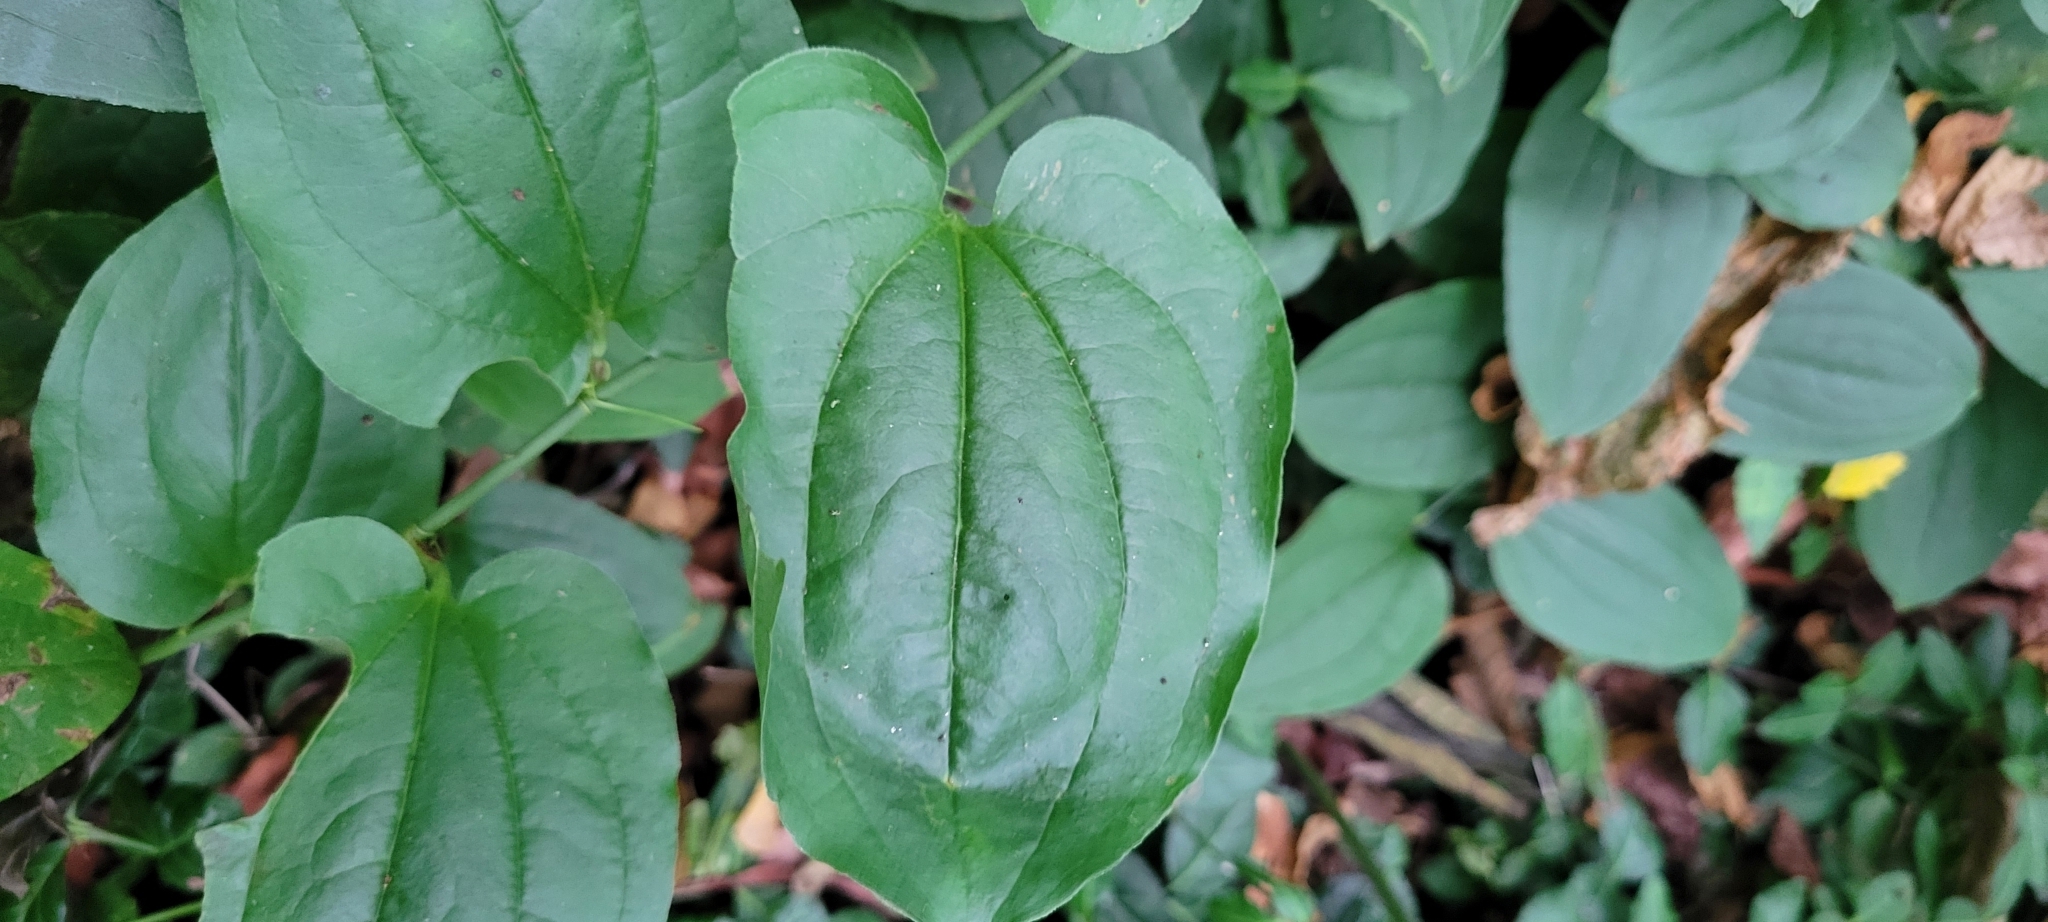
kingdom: Plantae
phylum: Tracheophyta
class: Liliopsida
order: Liliales
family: Smilacaceae
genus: Smilax
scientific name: Smilax rotundifolia
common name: Bullbriar
